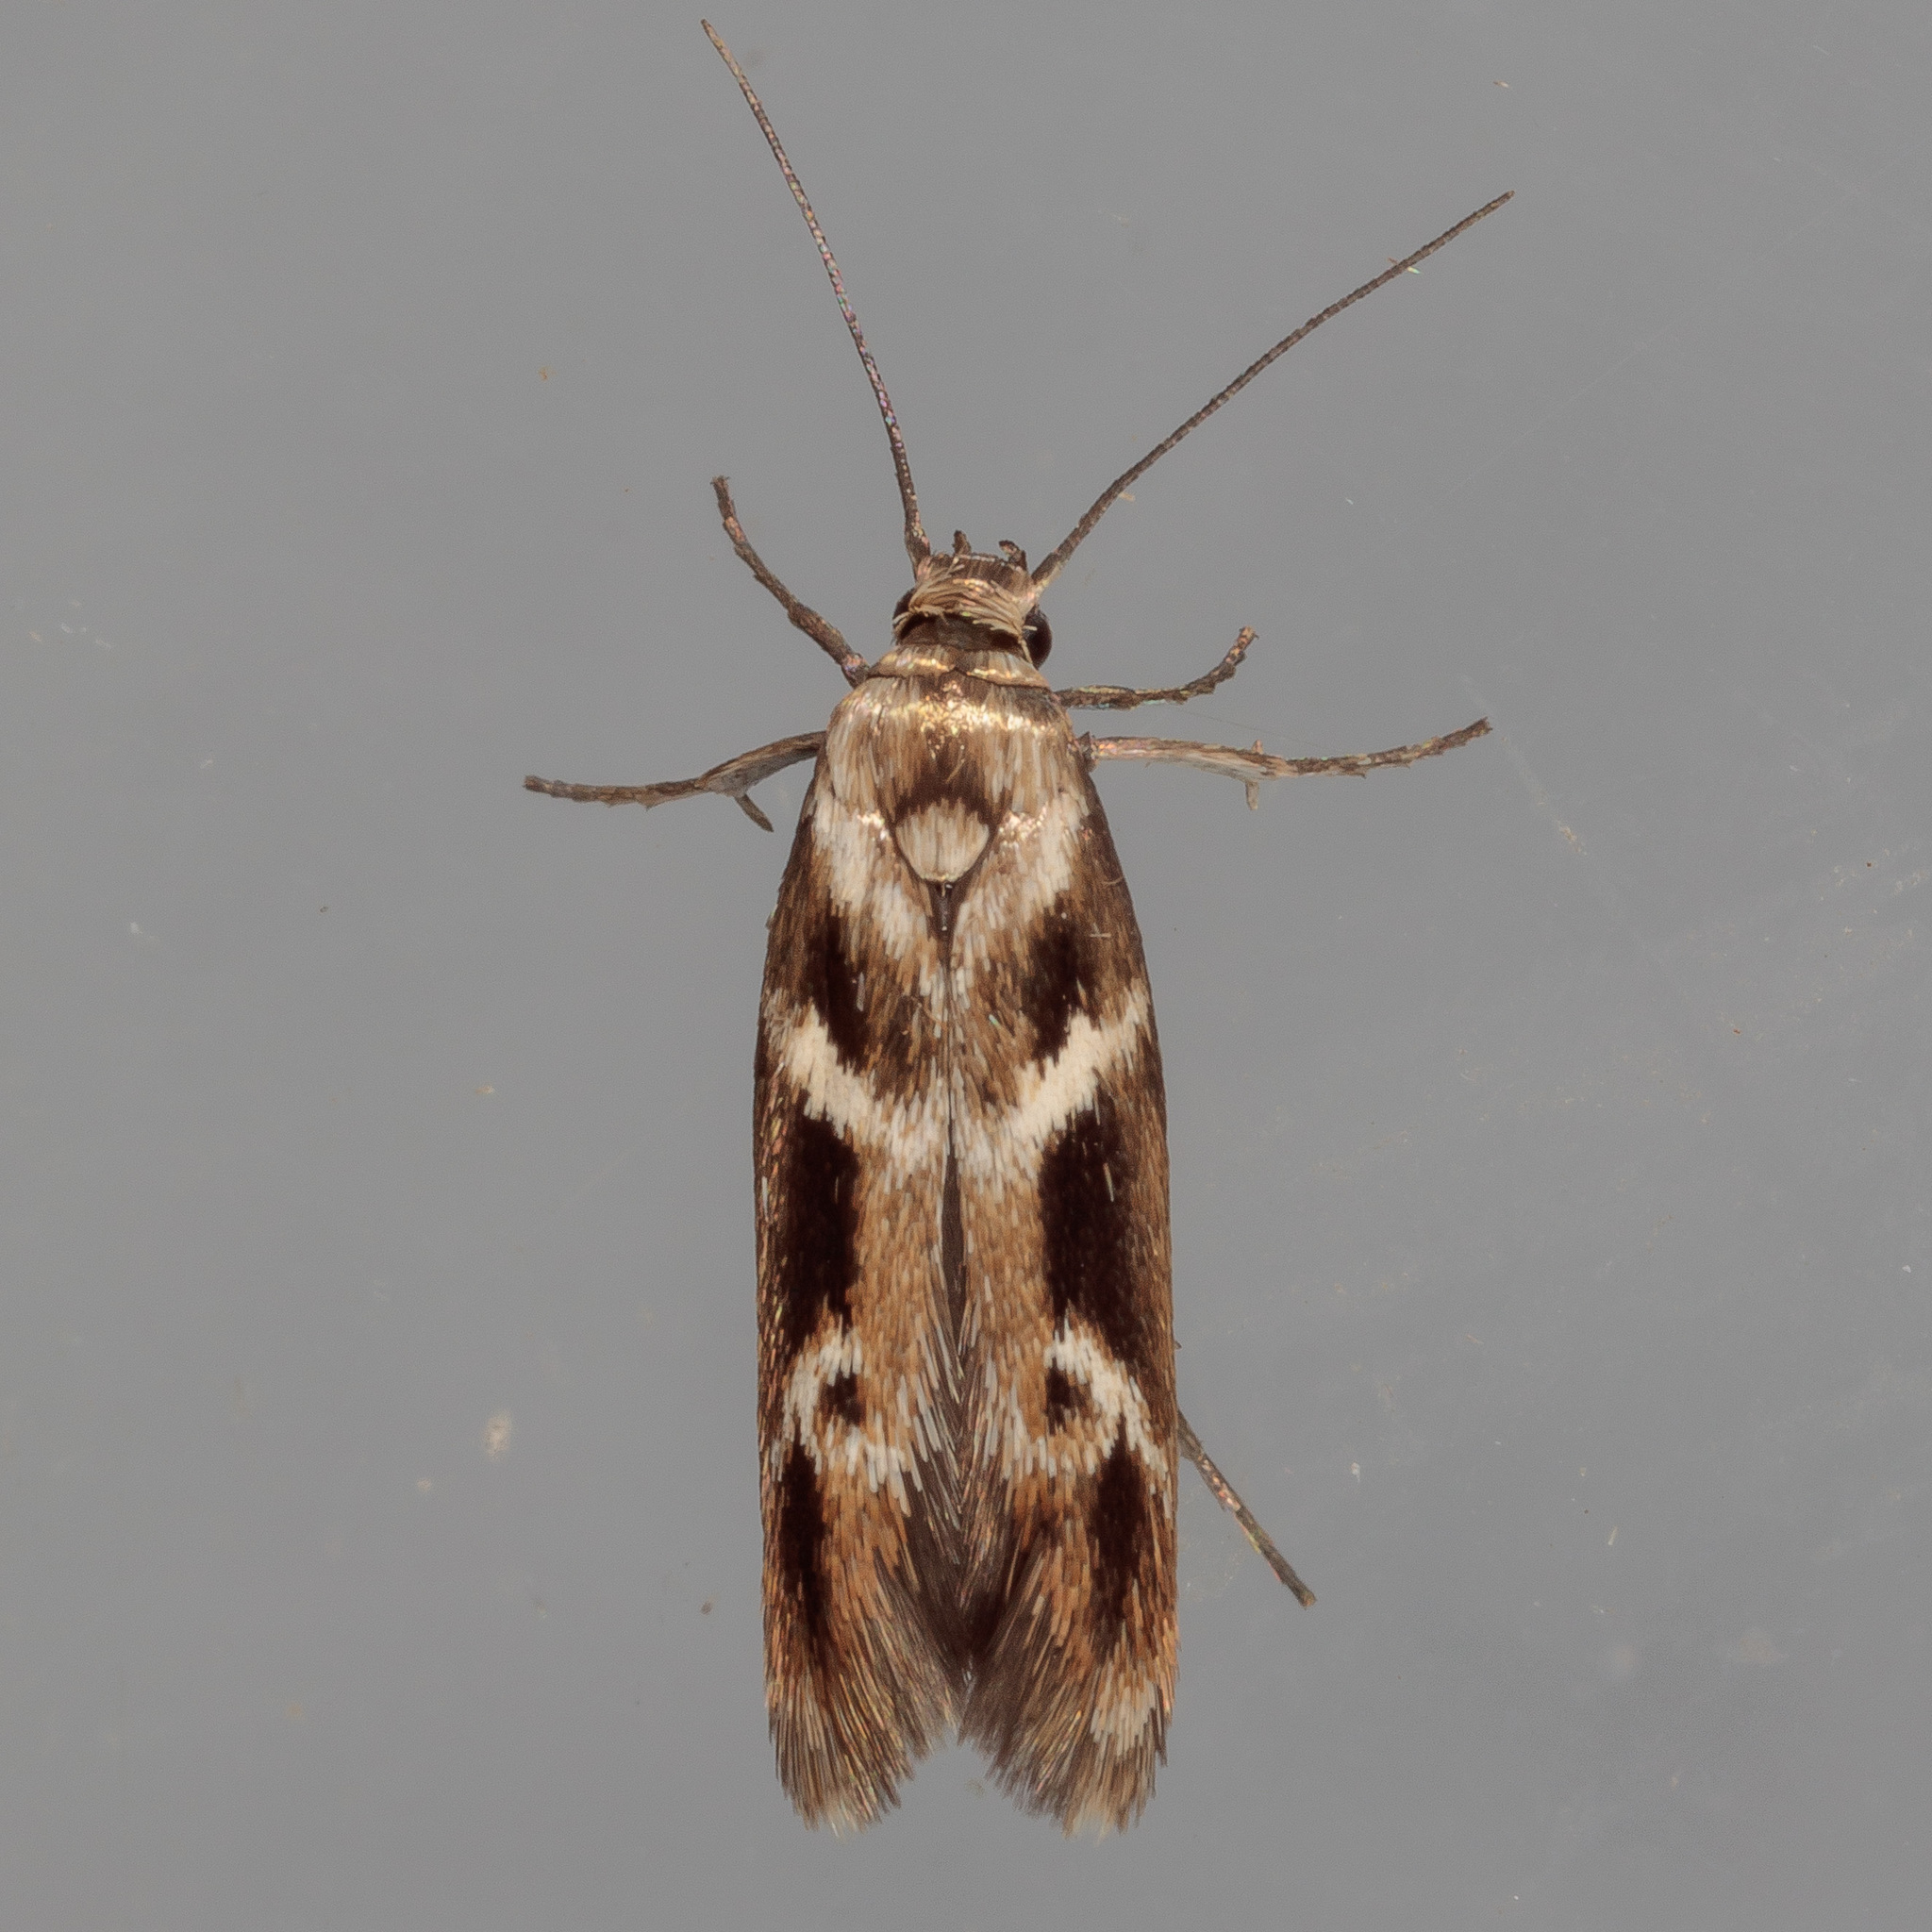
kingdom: Animalia
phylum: Arthropoda
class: Insecta
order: Lepidoptera
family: Scythrididae
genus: Scythris
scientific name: Scythris trivinctella
